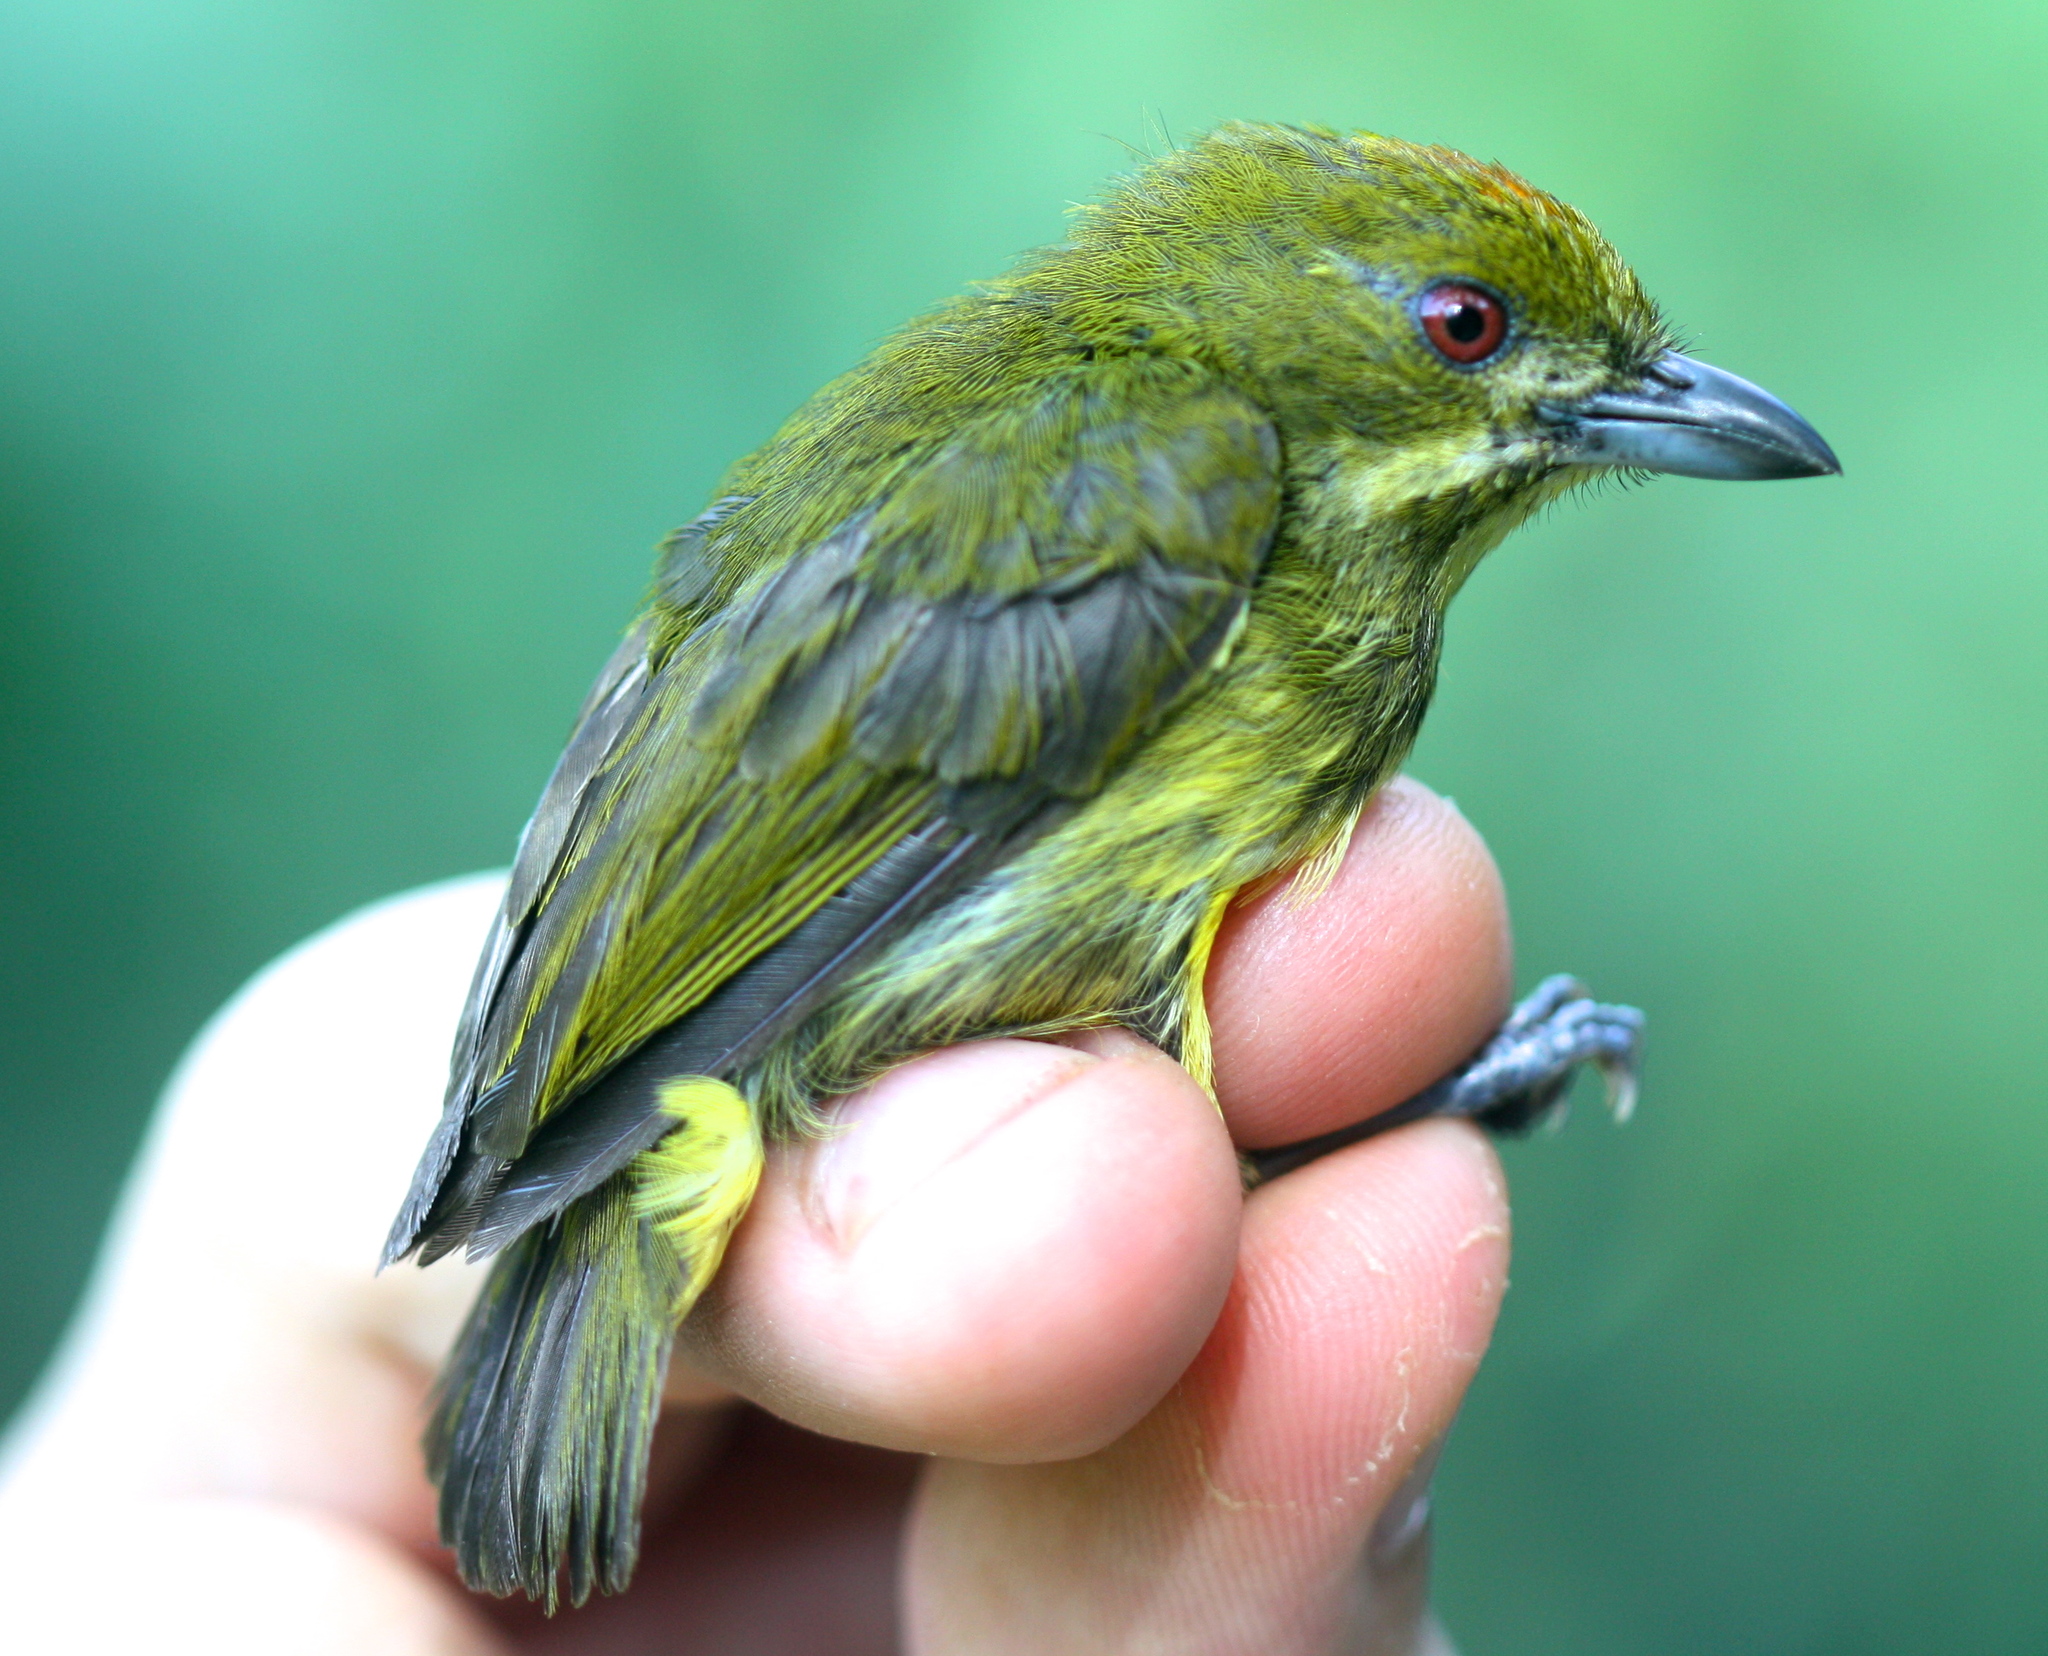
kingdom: Animalia
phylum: Chordata
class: Aves
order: Passeriformes
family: Dicaeidae
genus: Prionochilus
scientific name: Prionochilus maculatus
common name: Yellow-breasted flowerpecker
